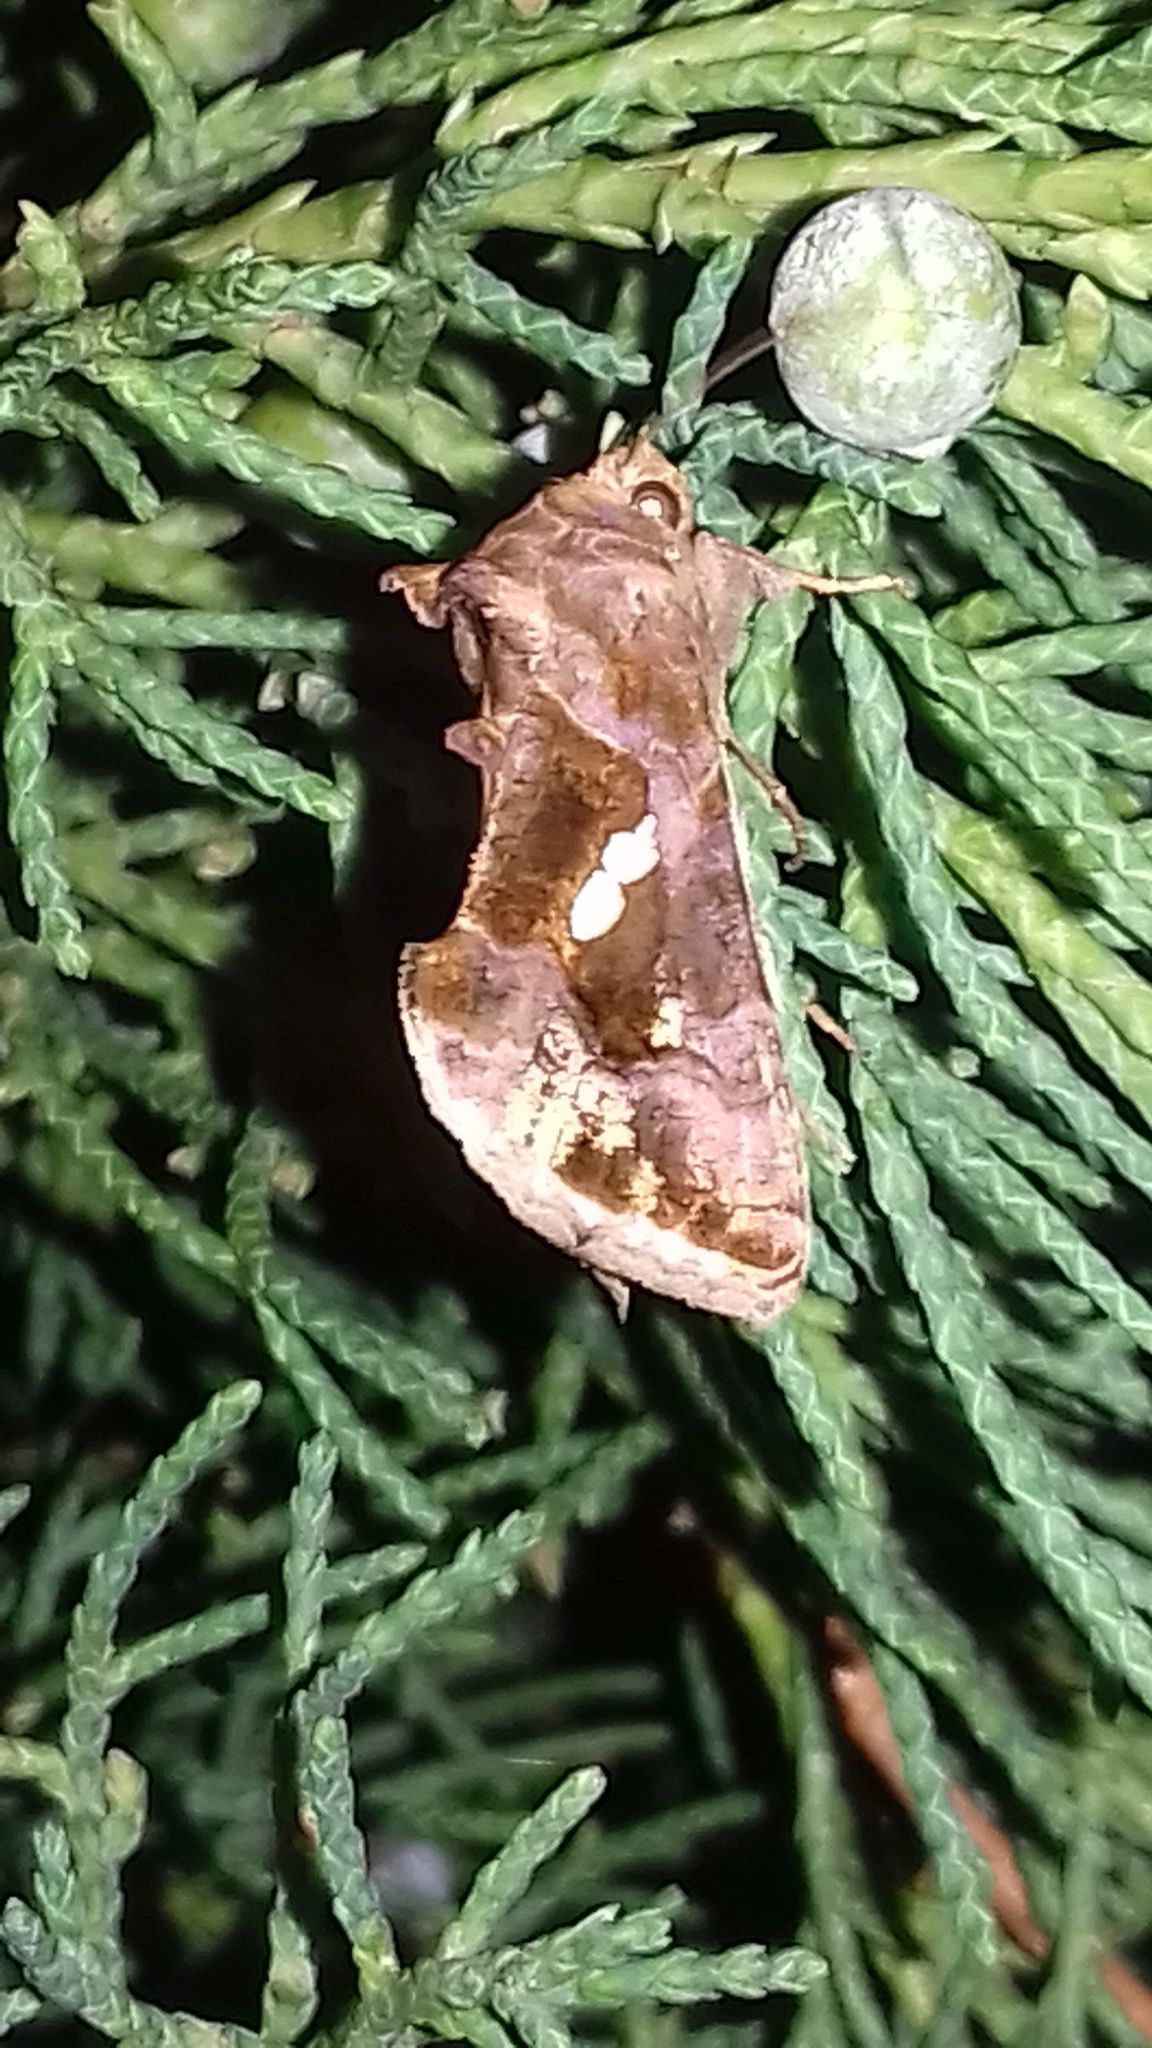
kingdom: Animalia
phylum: Arthropoda
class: Insecta
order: Lepidoptera
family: Noctuidae
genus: Chrysodeixis
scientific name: Chrysodeixis chalcites
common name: Golden twin-spot
